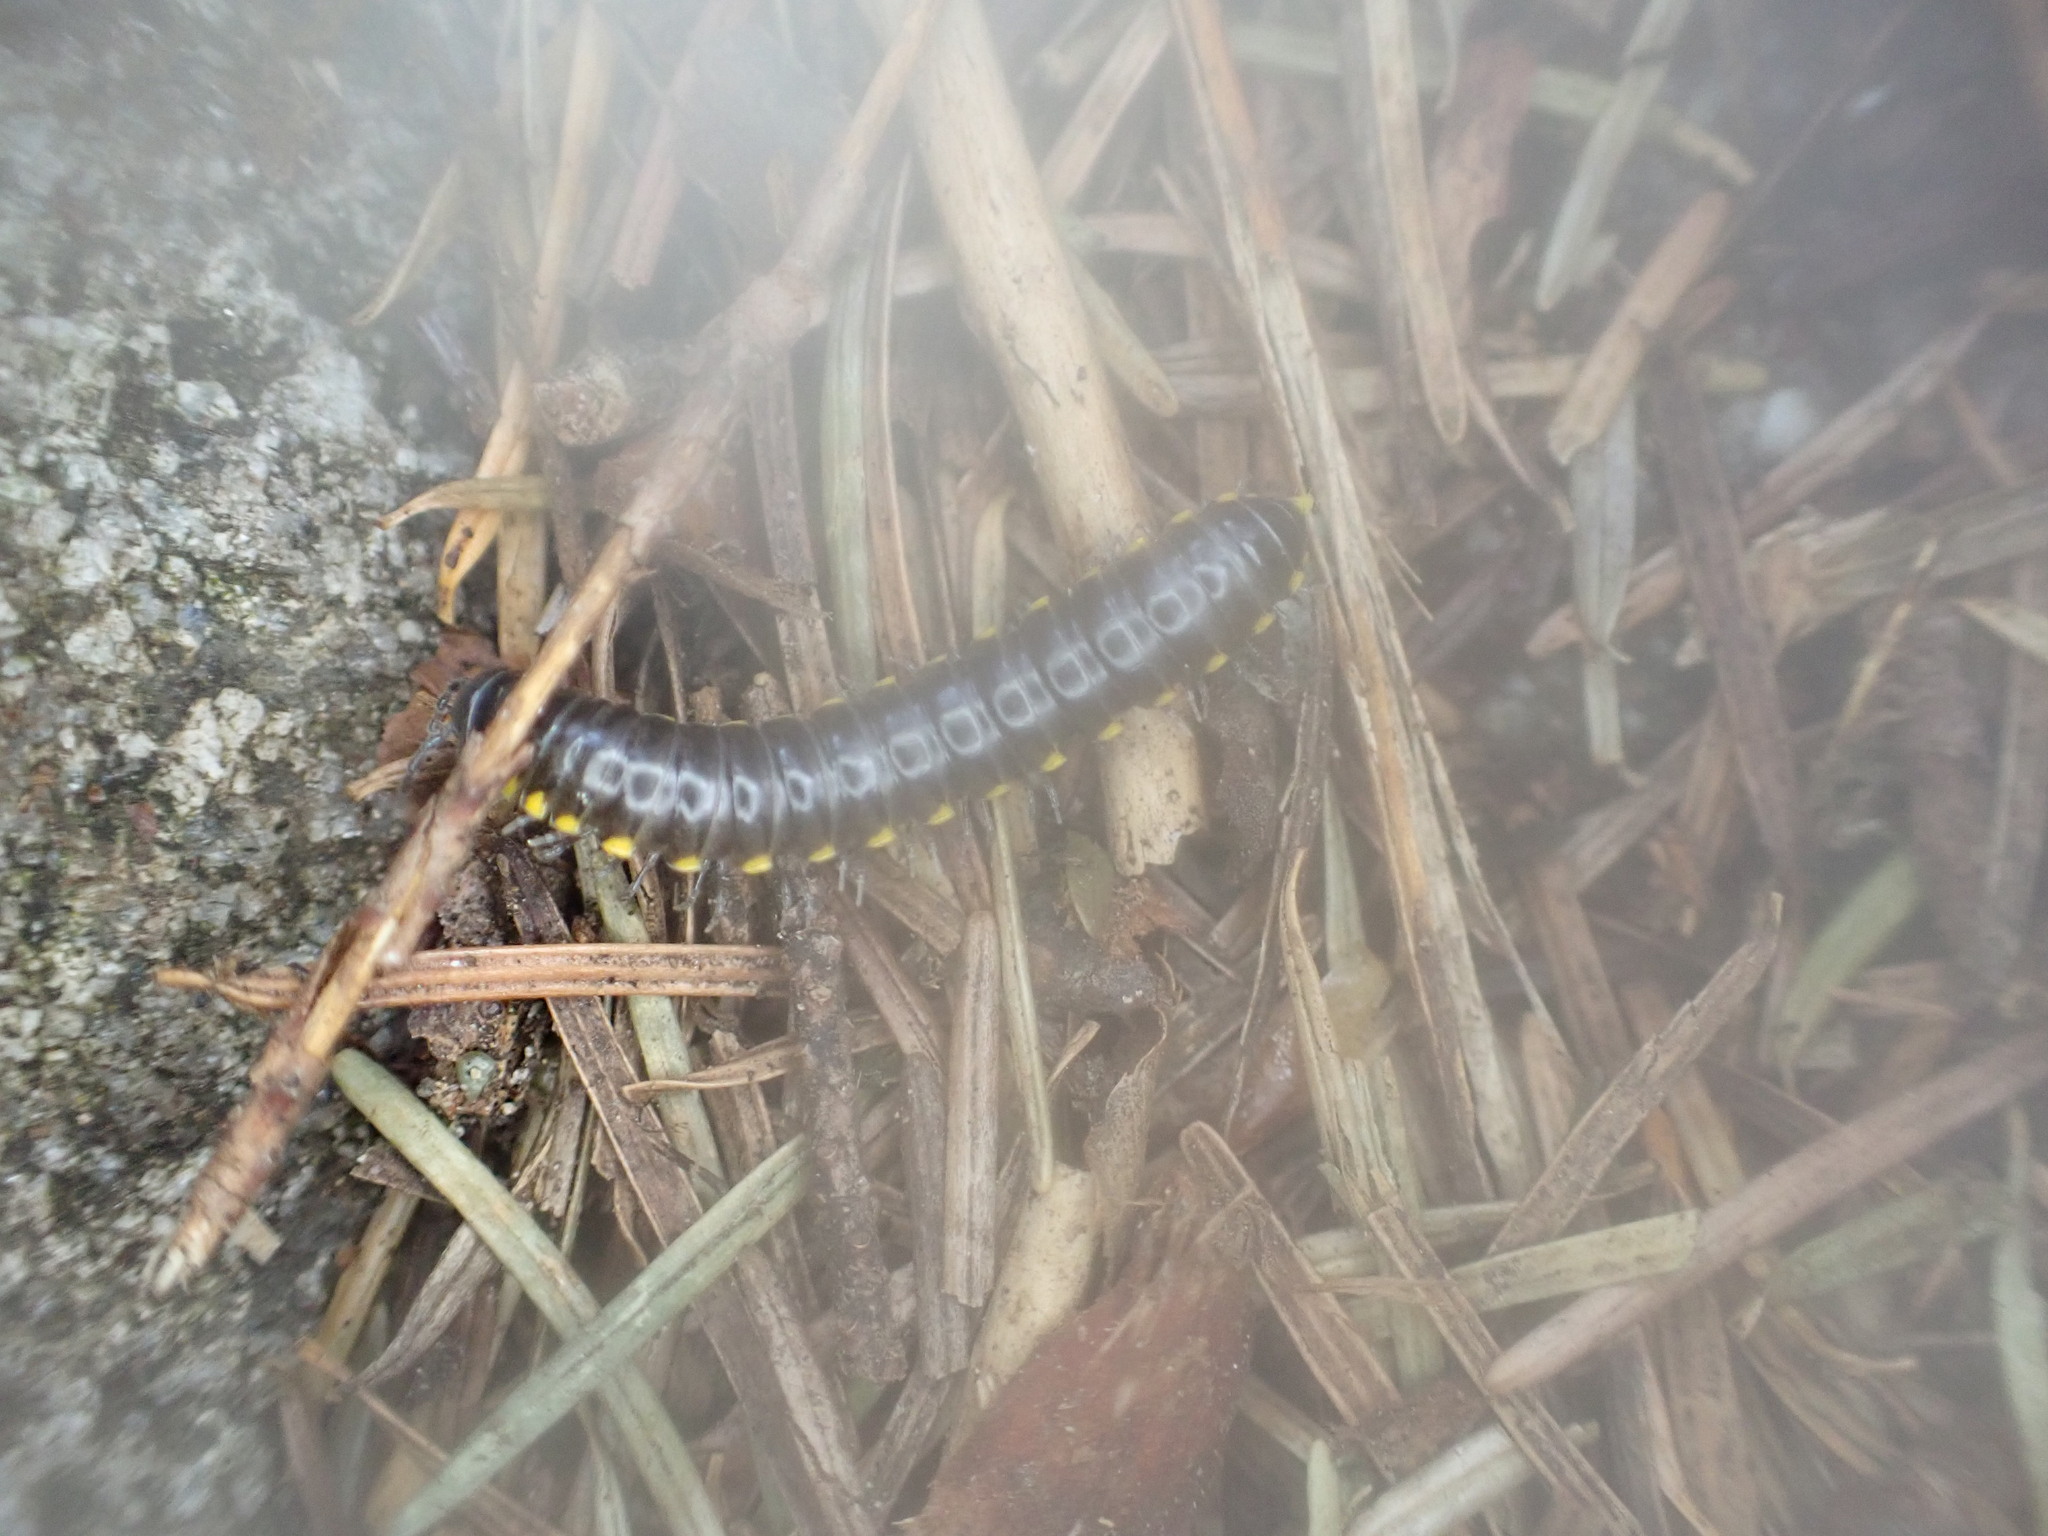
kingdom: Animalia
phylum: Arthropoda
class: Diplopoda
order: Polydesmida
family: Xystodesmidae
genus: Harpaphe
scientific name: Harpaphe haydeniana
